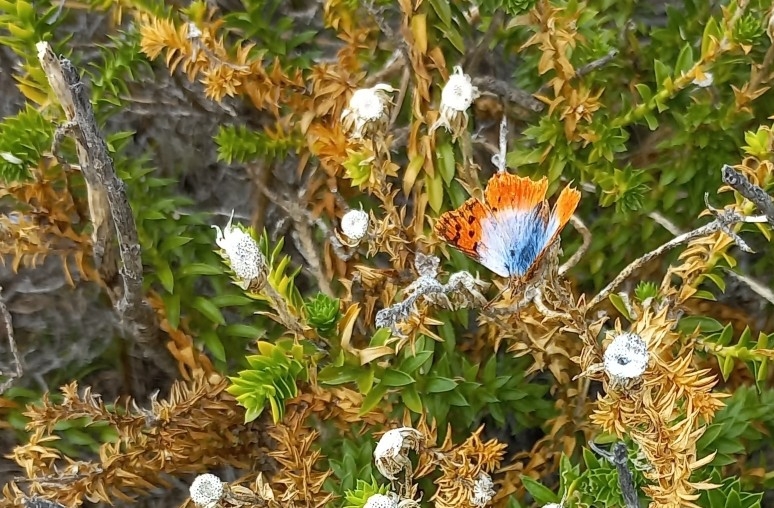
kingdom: Animalia
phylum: Arthropoda
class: Insecta
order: Lepidoptera
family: Lycaenidae
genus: Chrysoritis
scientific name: Chrysoritis thysbe
